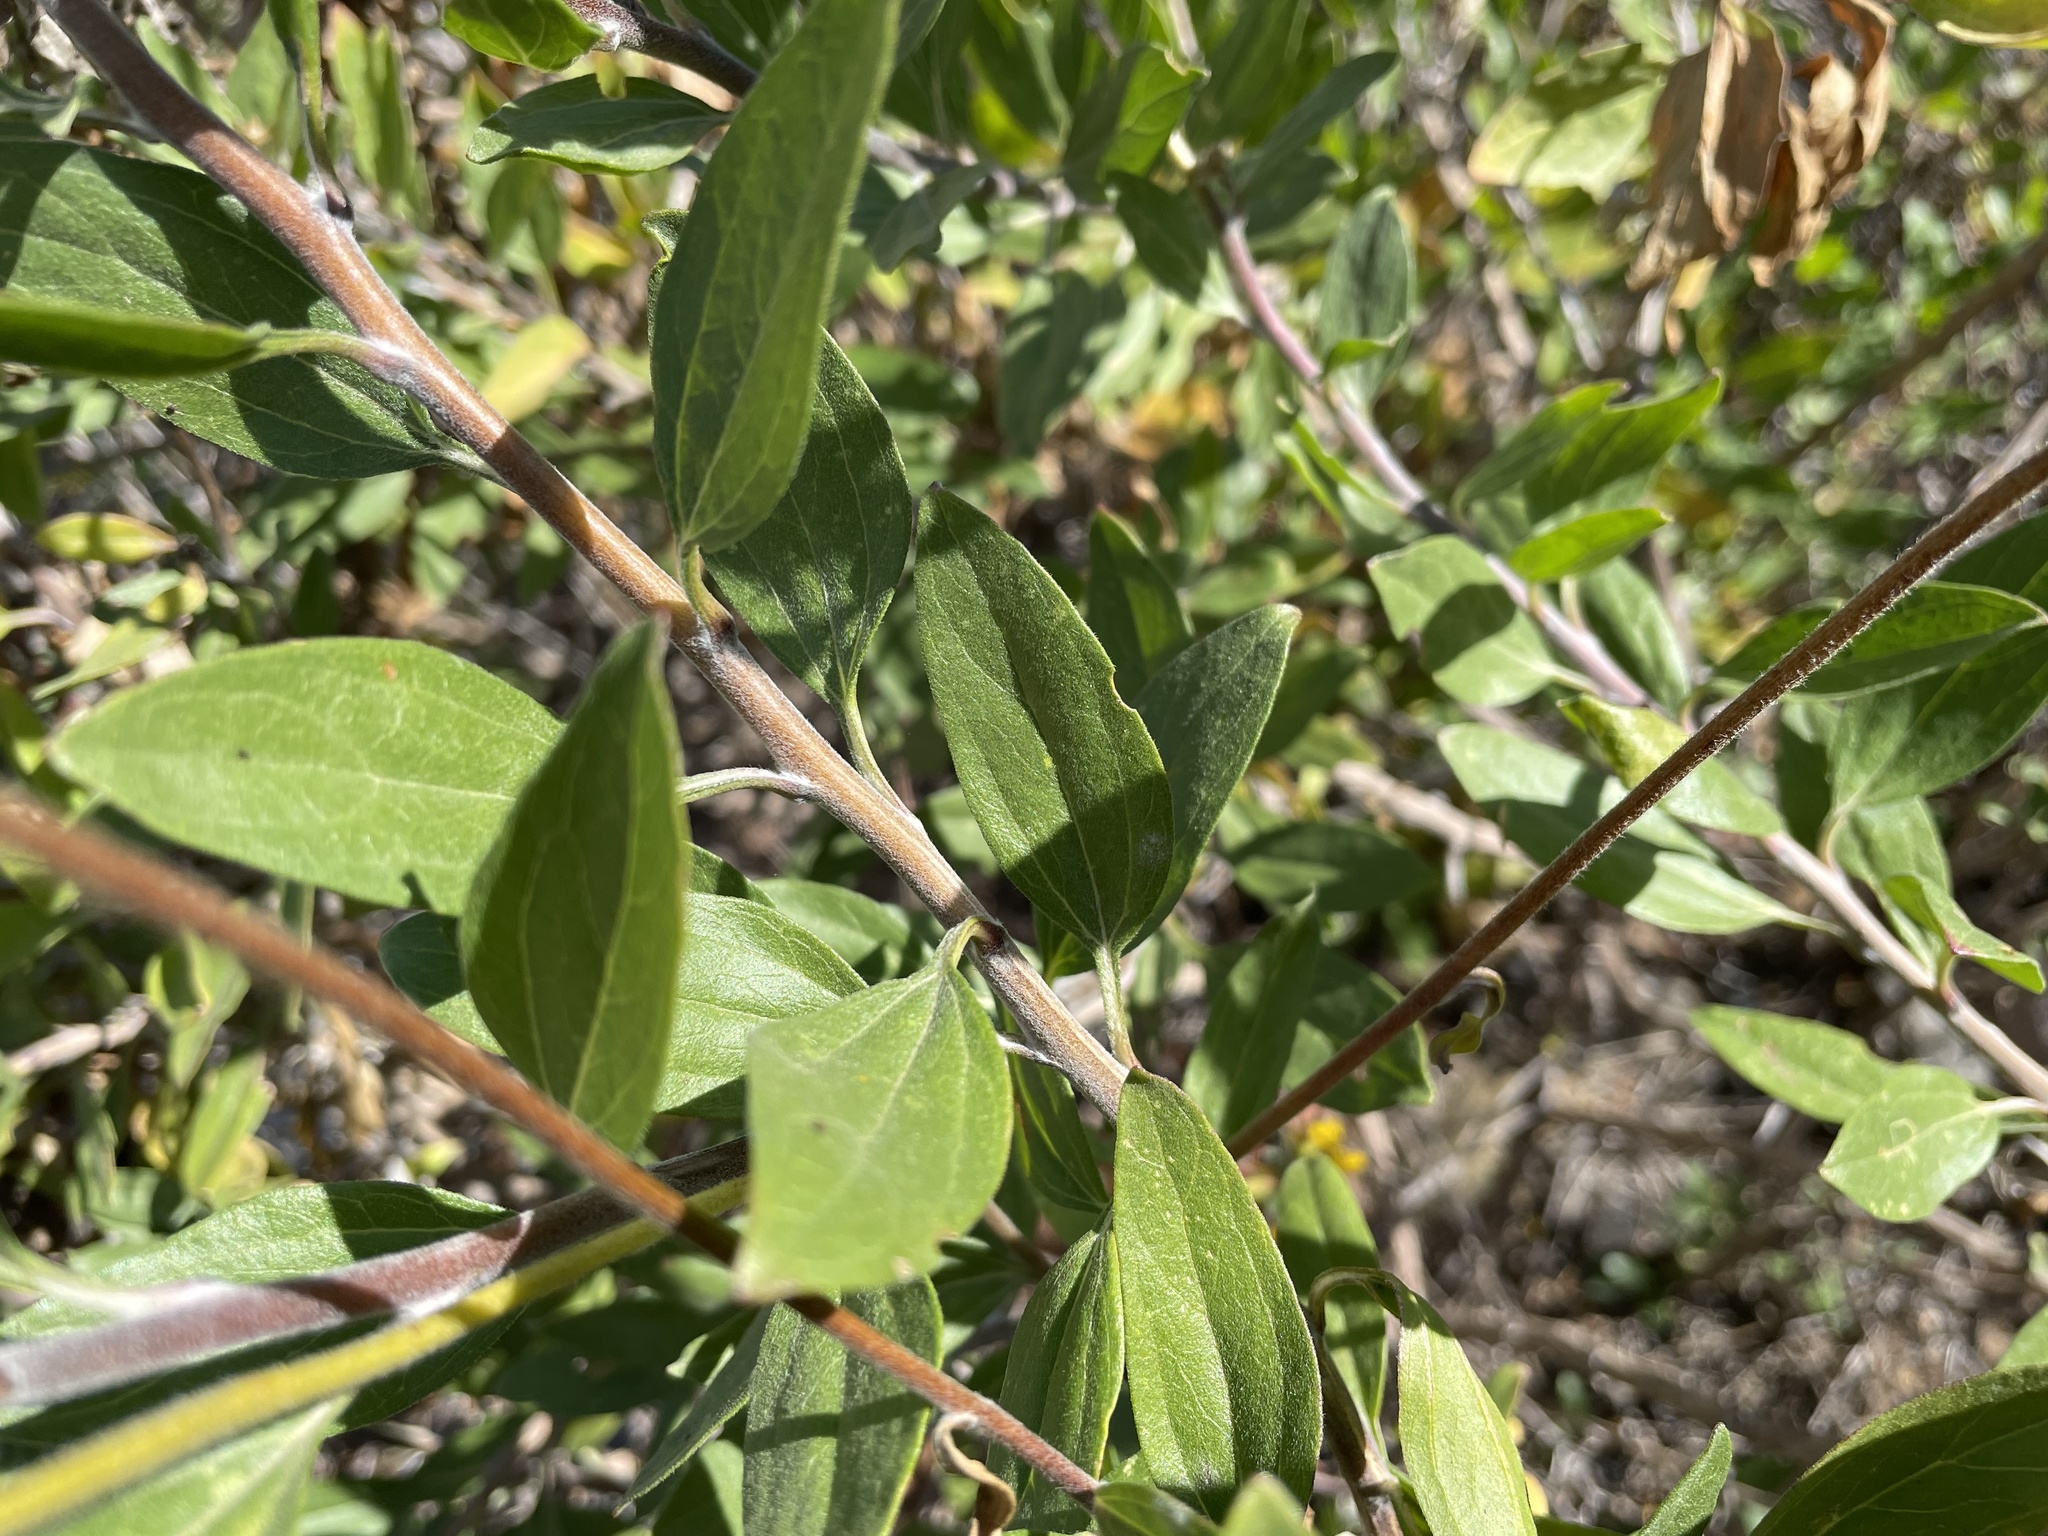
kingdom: Plantae
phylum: Tracheophyta
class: Magnoliopsida
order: Asterales
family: Asteraceae
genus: Encelia
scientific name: Encelia californica
